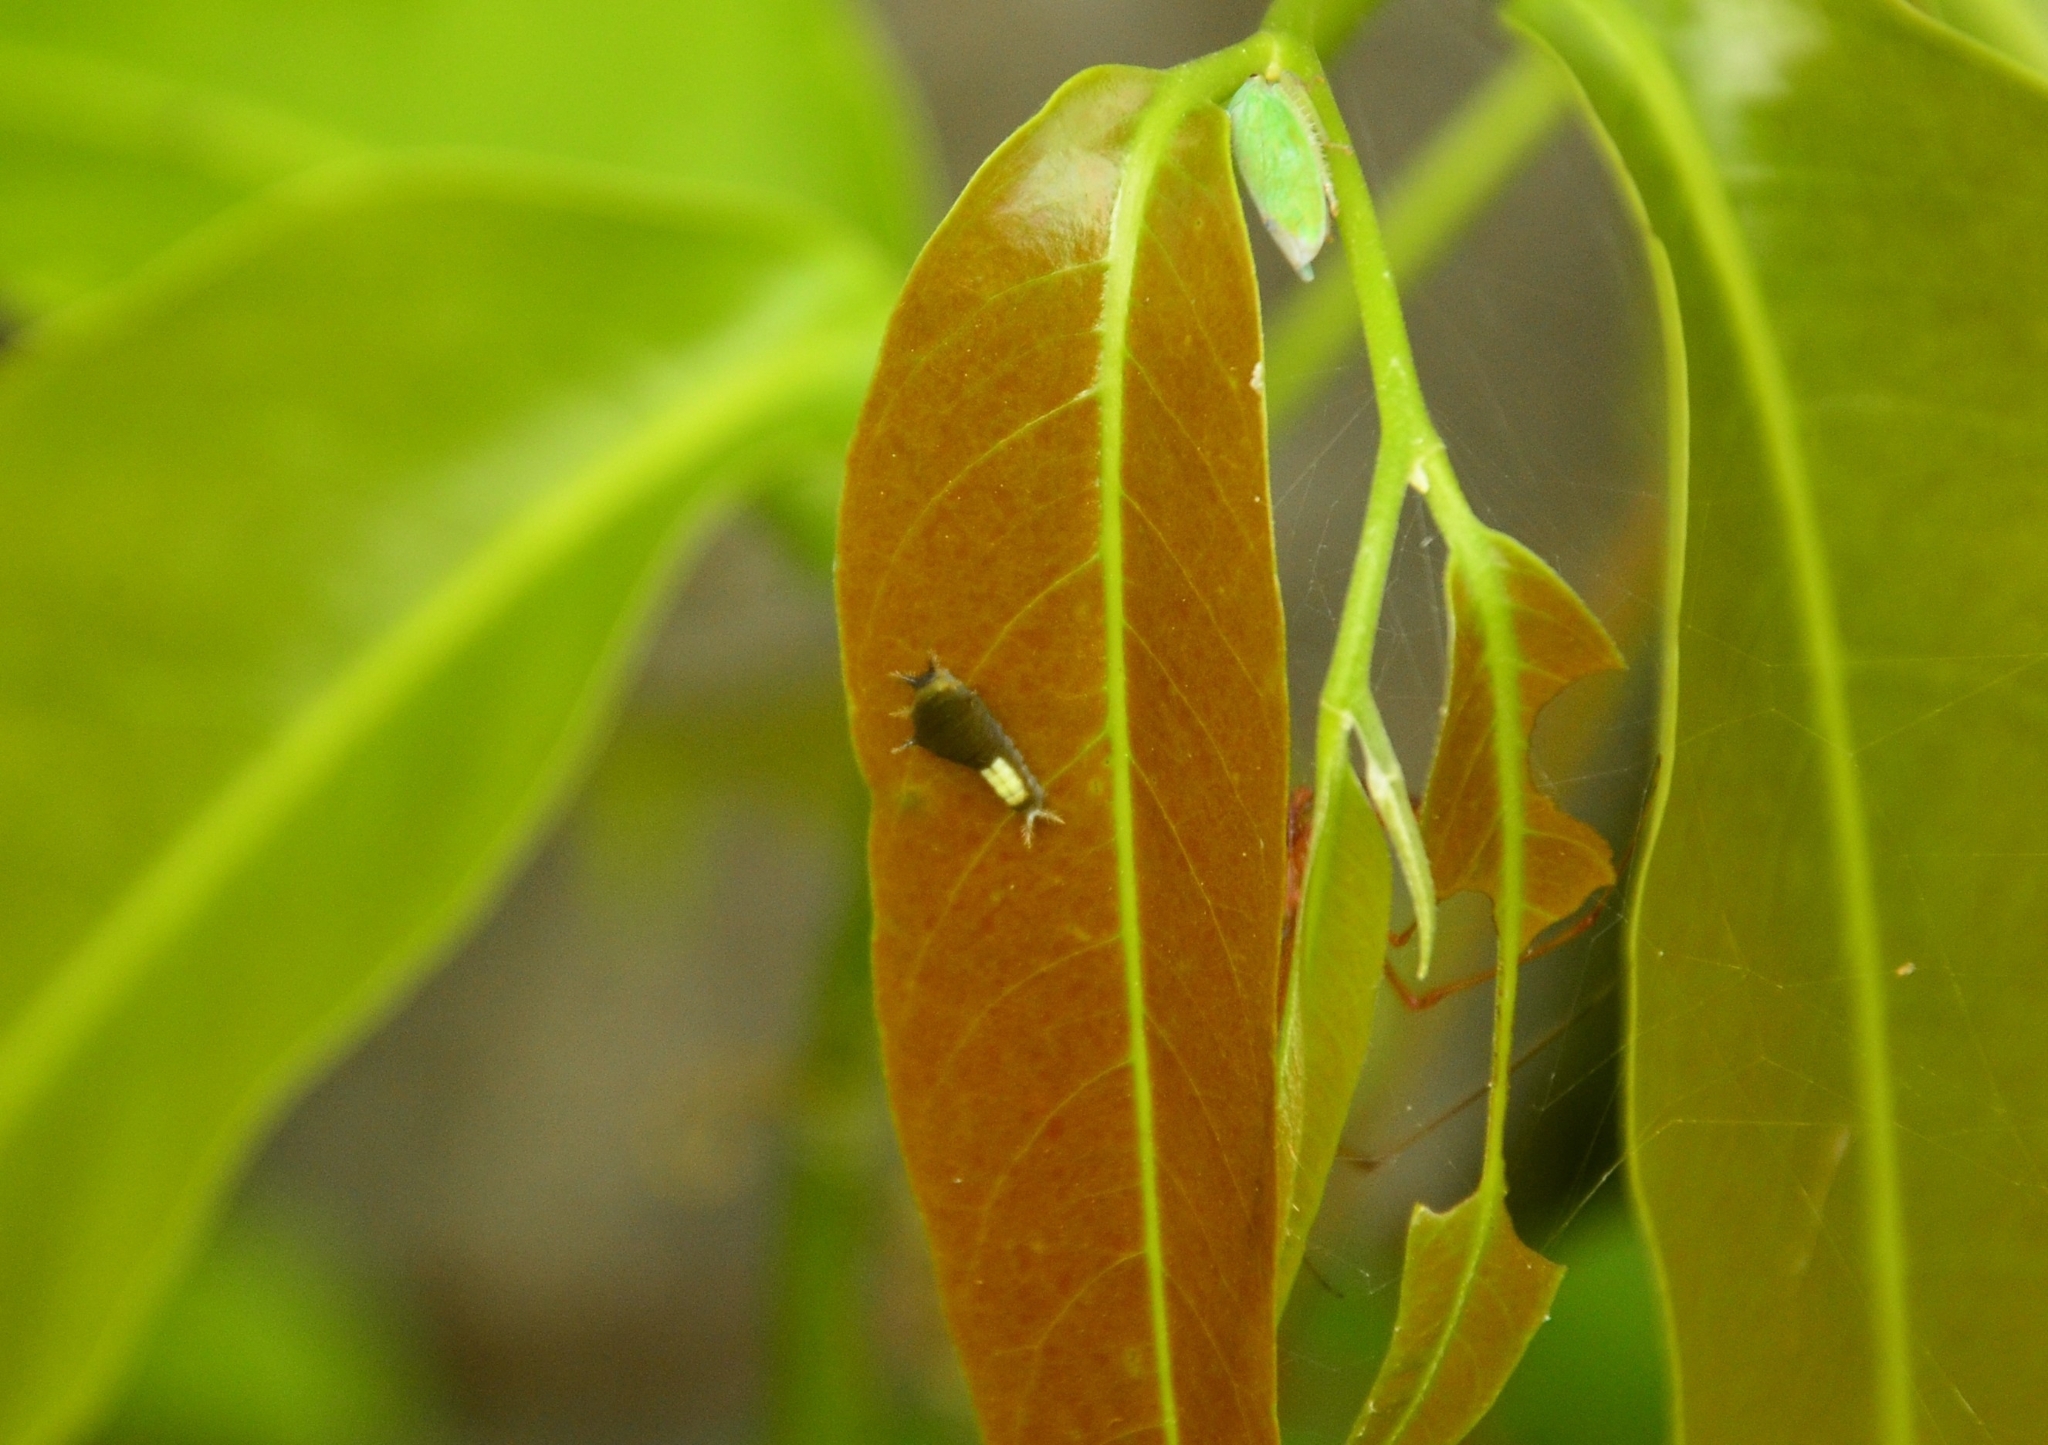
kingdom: Animalia
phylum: Arthropoda
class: Insecta
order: Lepidoptera
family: Papilionidae
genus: Graphium
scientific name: Graphium agamemnon
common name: Tailed jay
